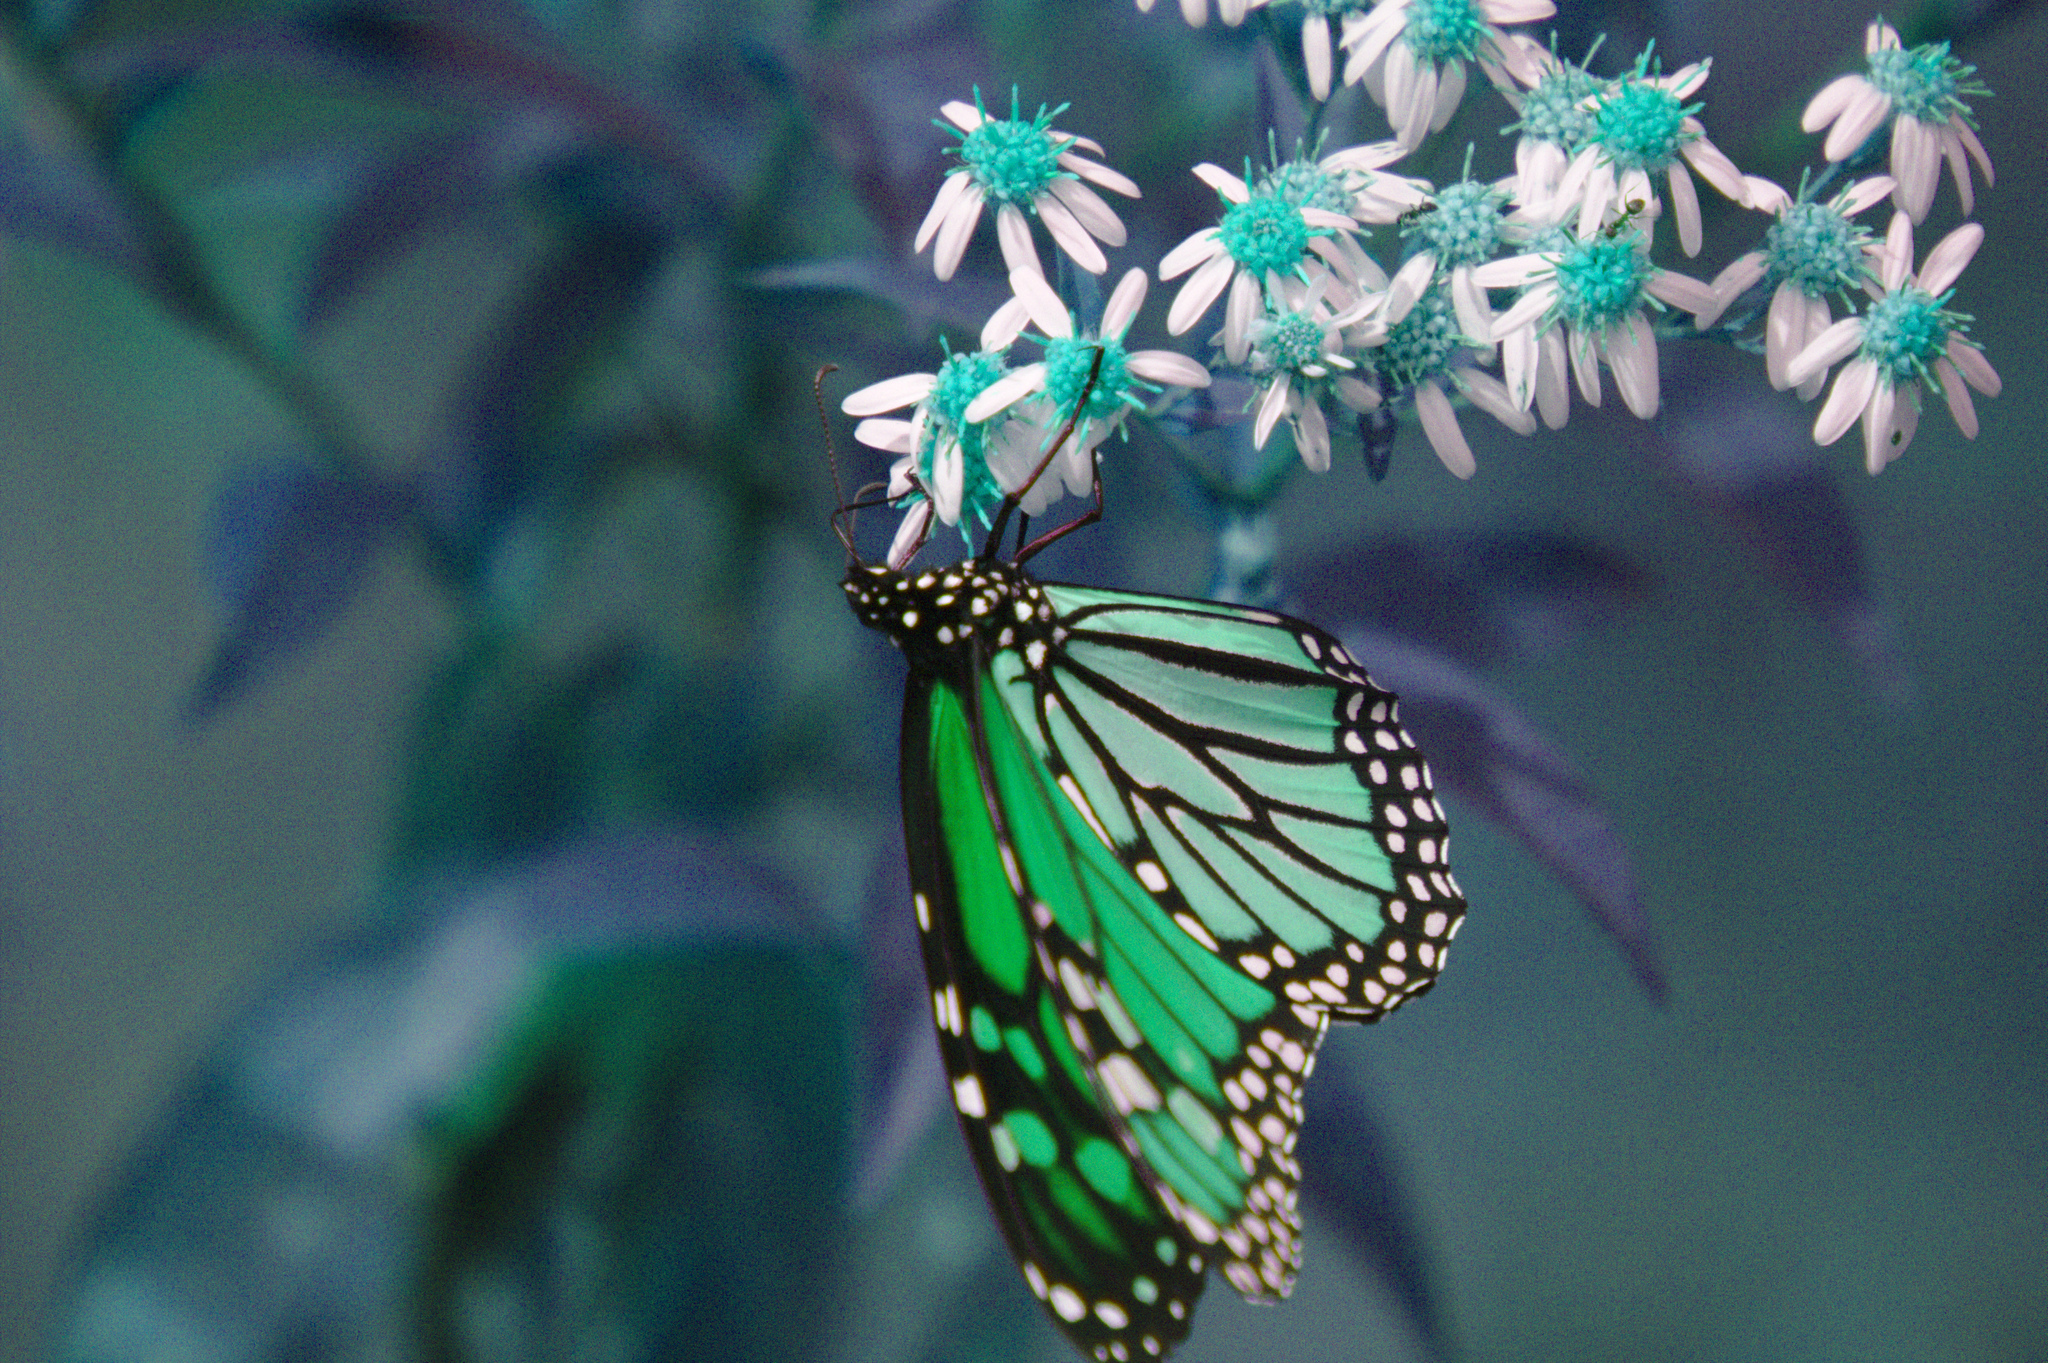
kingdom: Animalia
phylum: Arthropoda
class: Insecta
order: Lepidoptera
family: Nymphalidae
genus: Danaus
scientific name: Danaus plexippus
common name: Monarch
